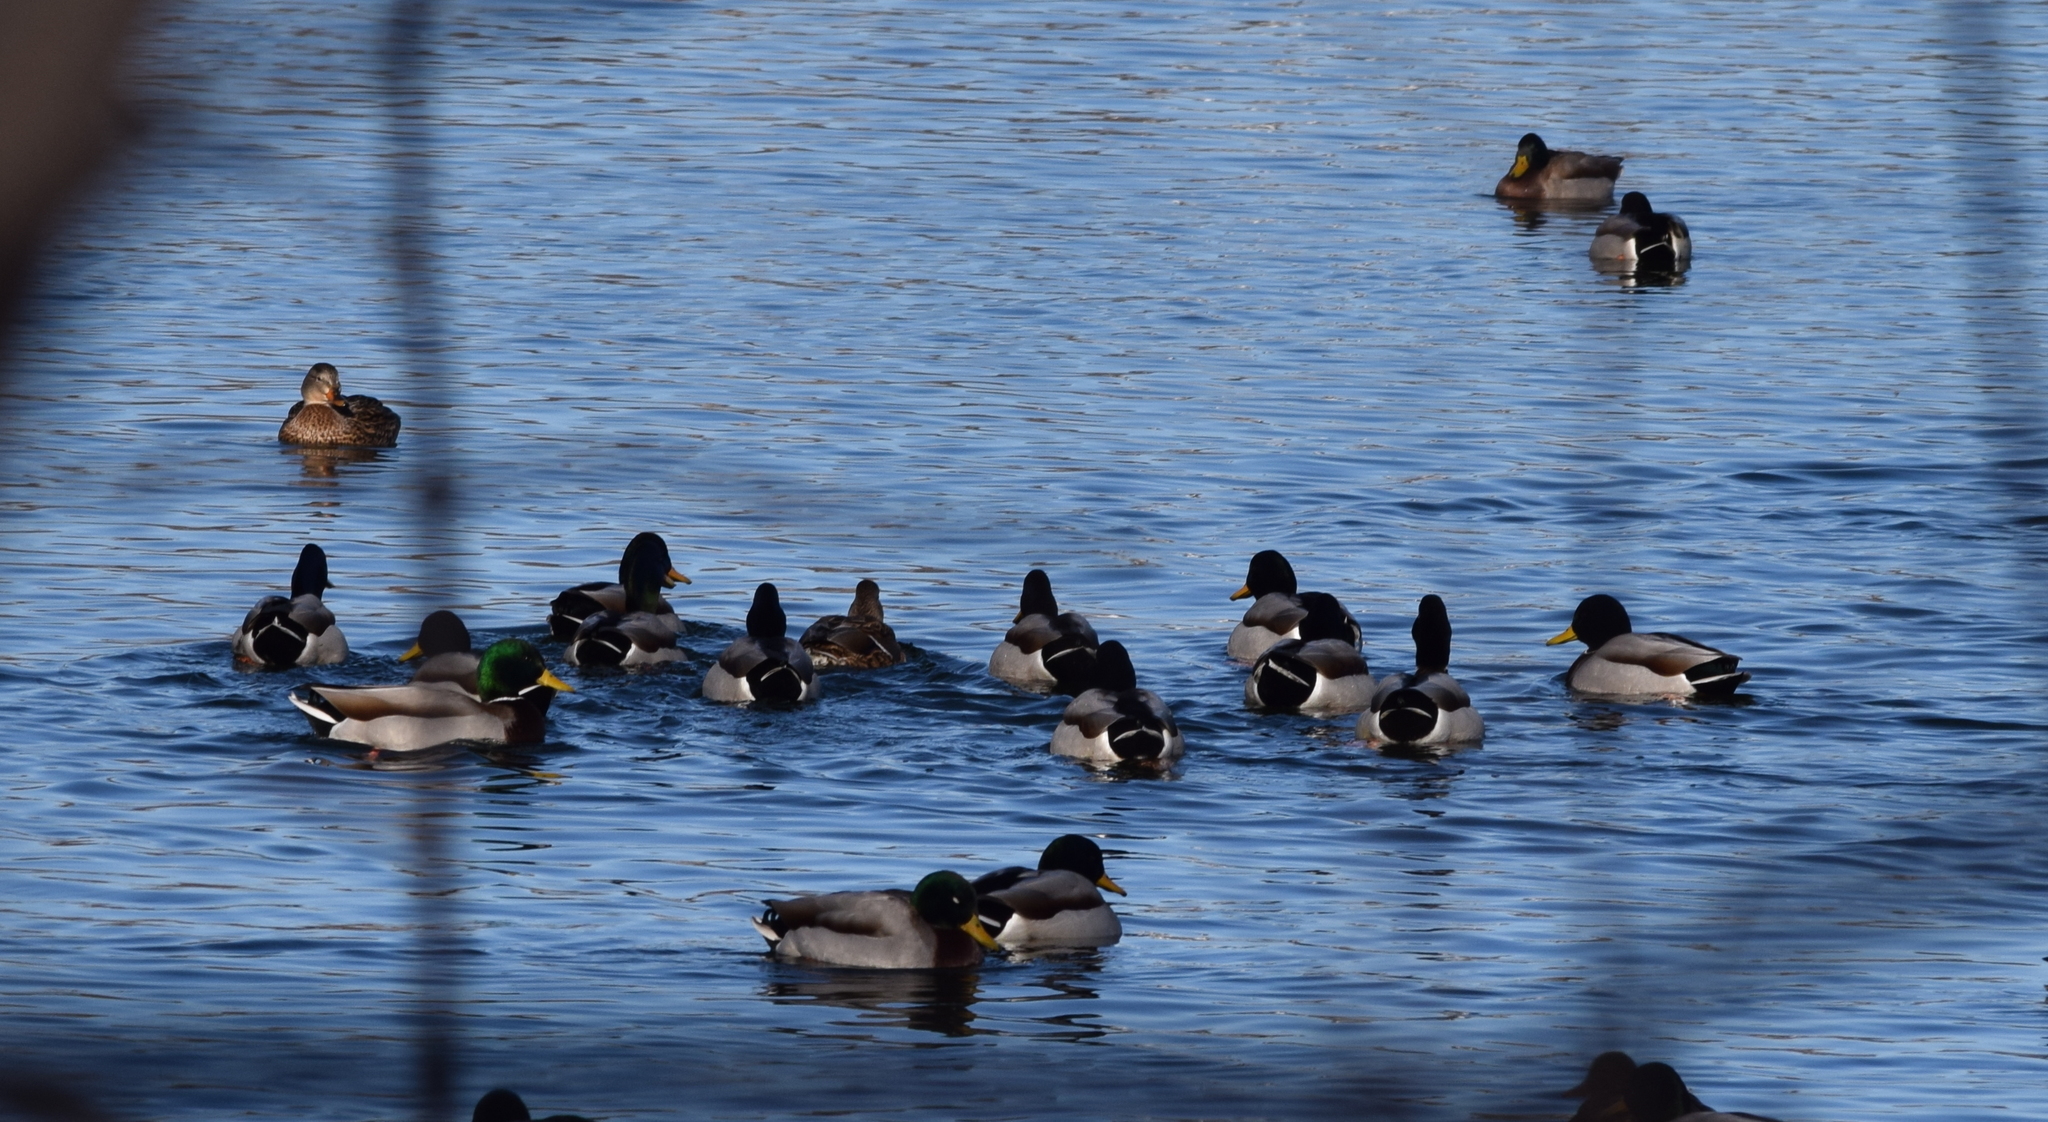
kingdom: Animalia
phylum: Chordata
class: Aves
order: Anseriformes
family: Anatidae
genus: Anas
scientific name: Anas platyrhynchos
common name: Mallard
